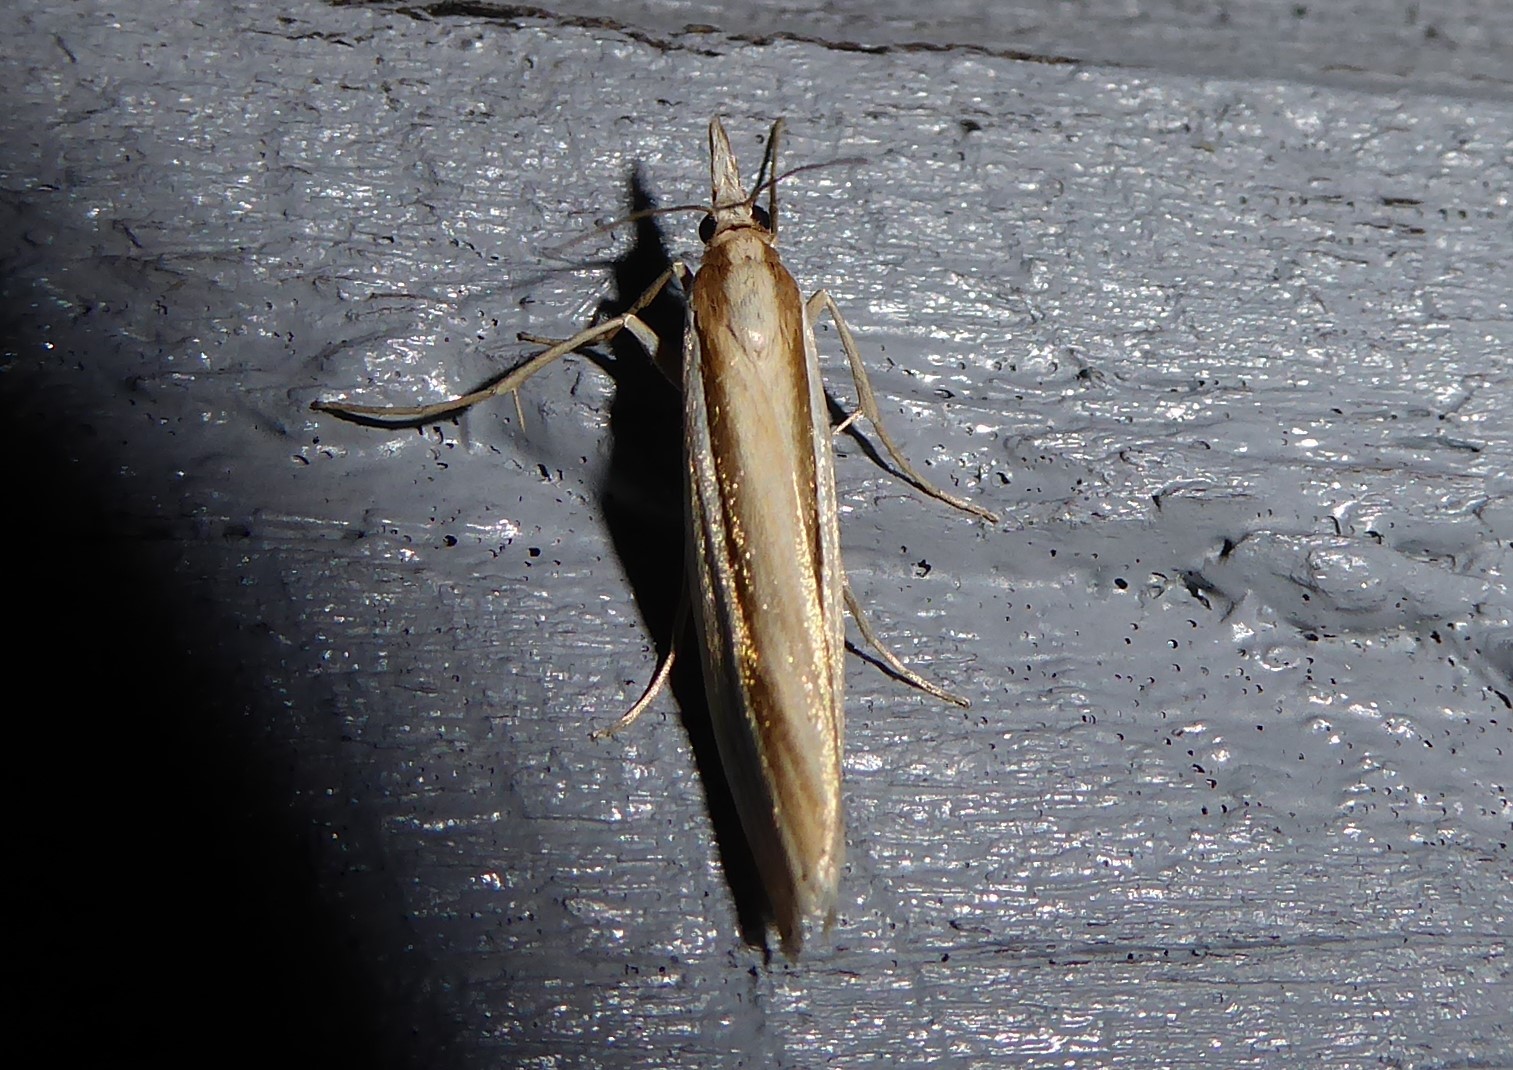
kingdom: Animalia
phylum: Arthropoda
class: Insecta
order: Lepidoptera
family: Crambidae
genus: Orocrambus
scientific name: Orocrambus ramosellus
